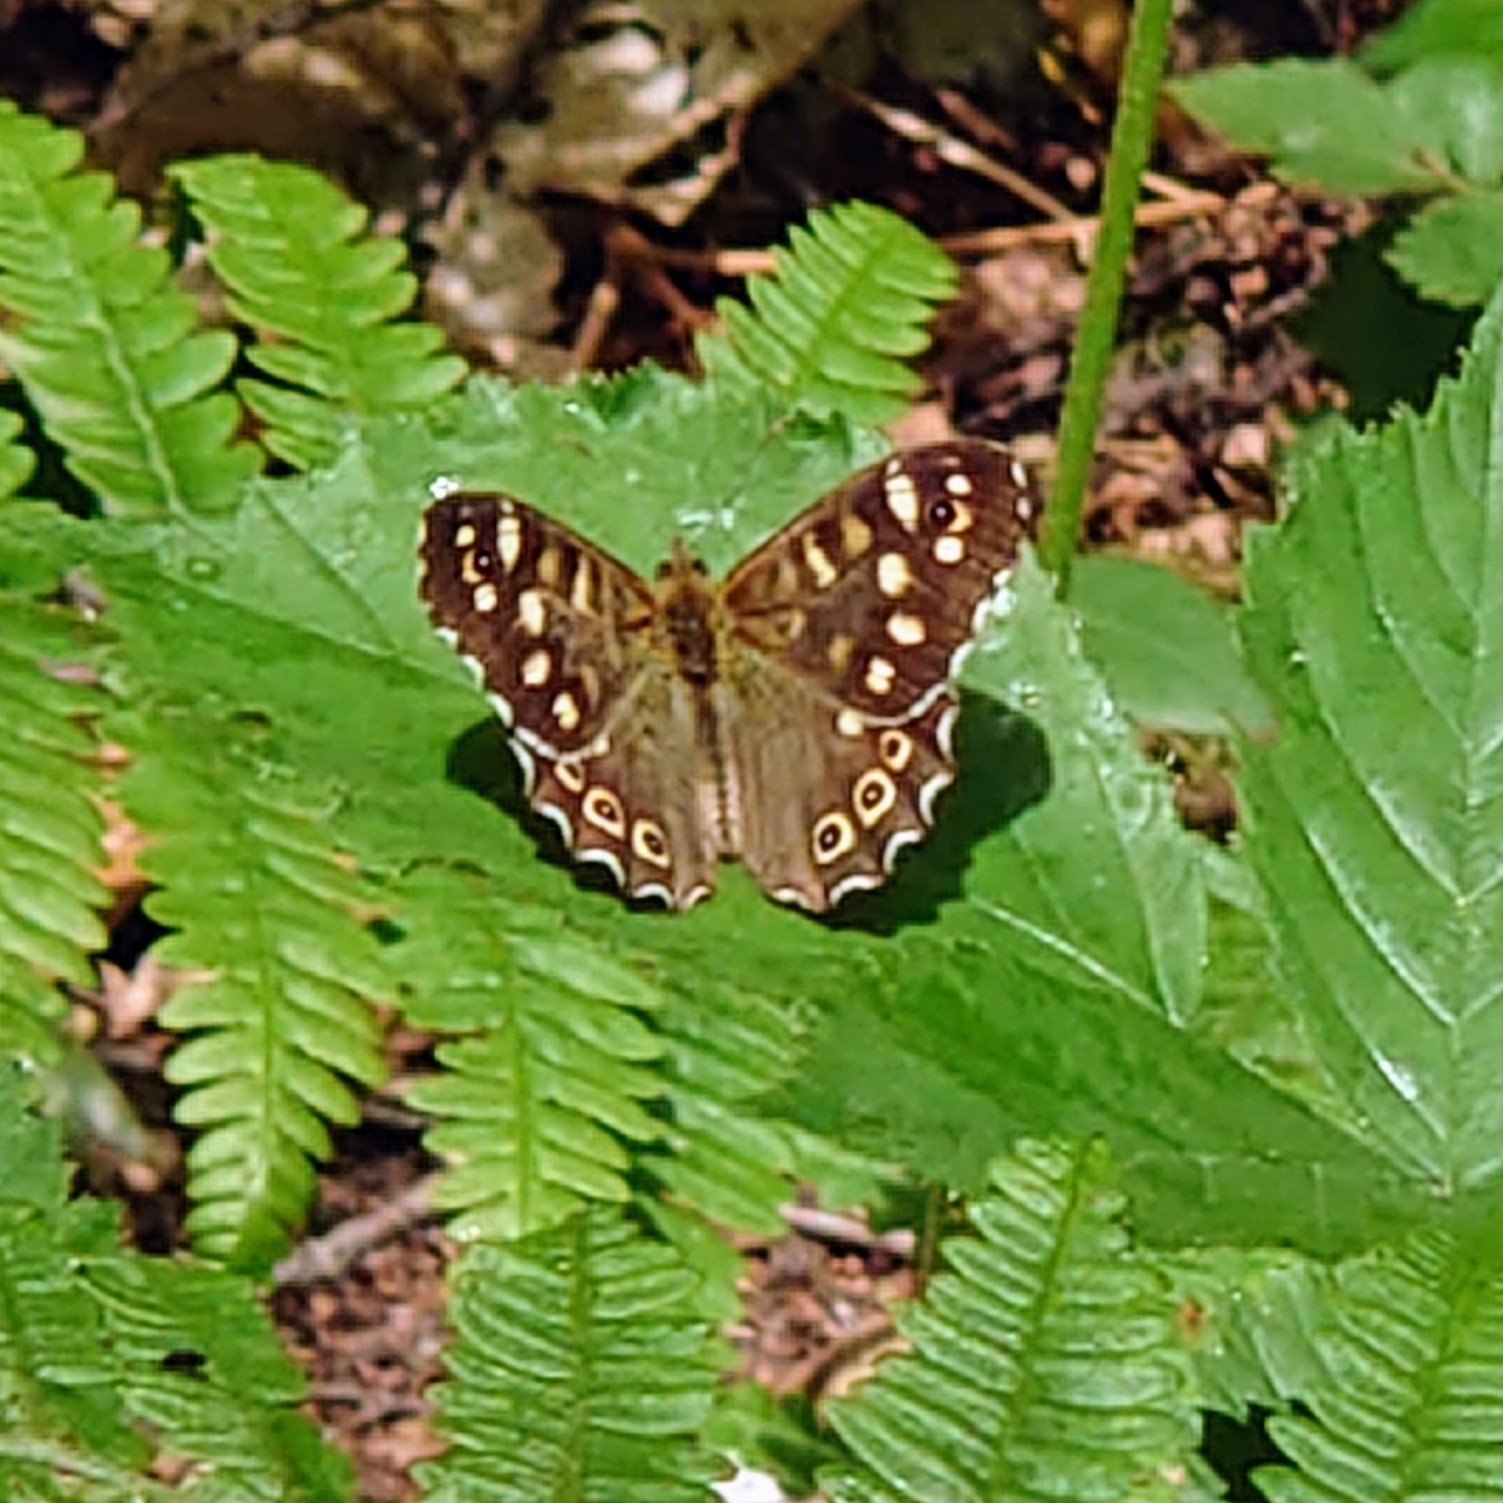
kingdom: Animalia
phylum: Arthropoda
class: Insecta
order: Lepidoptera
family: Nymphalidae
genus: Pararge
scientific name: Pararge aegeria
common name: Speckled wood
